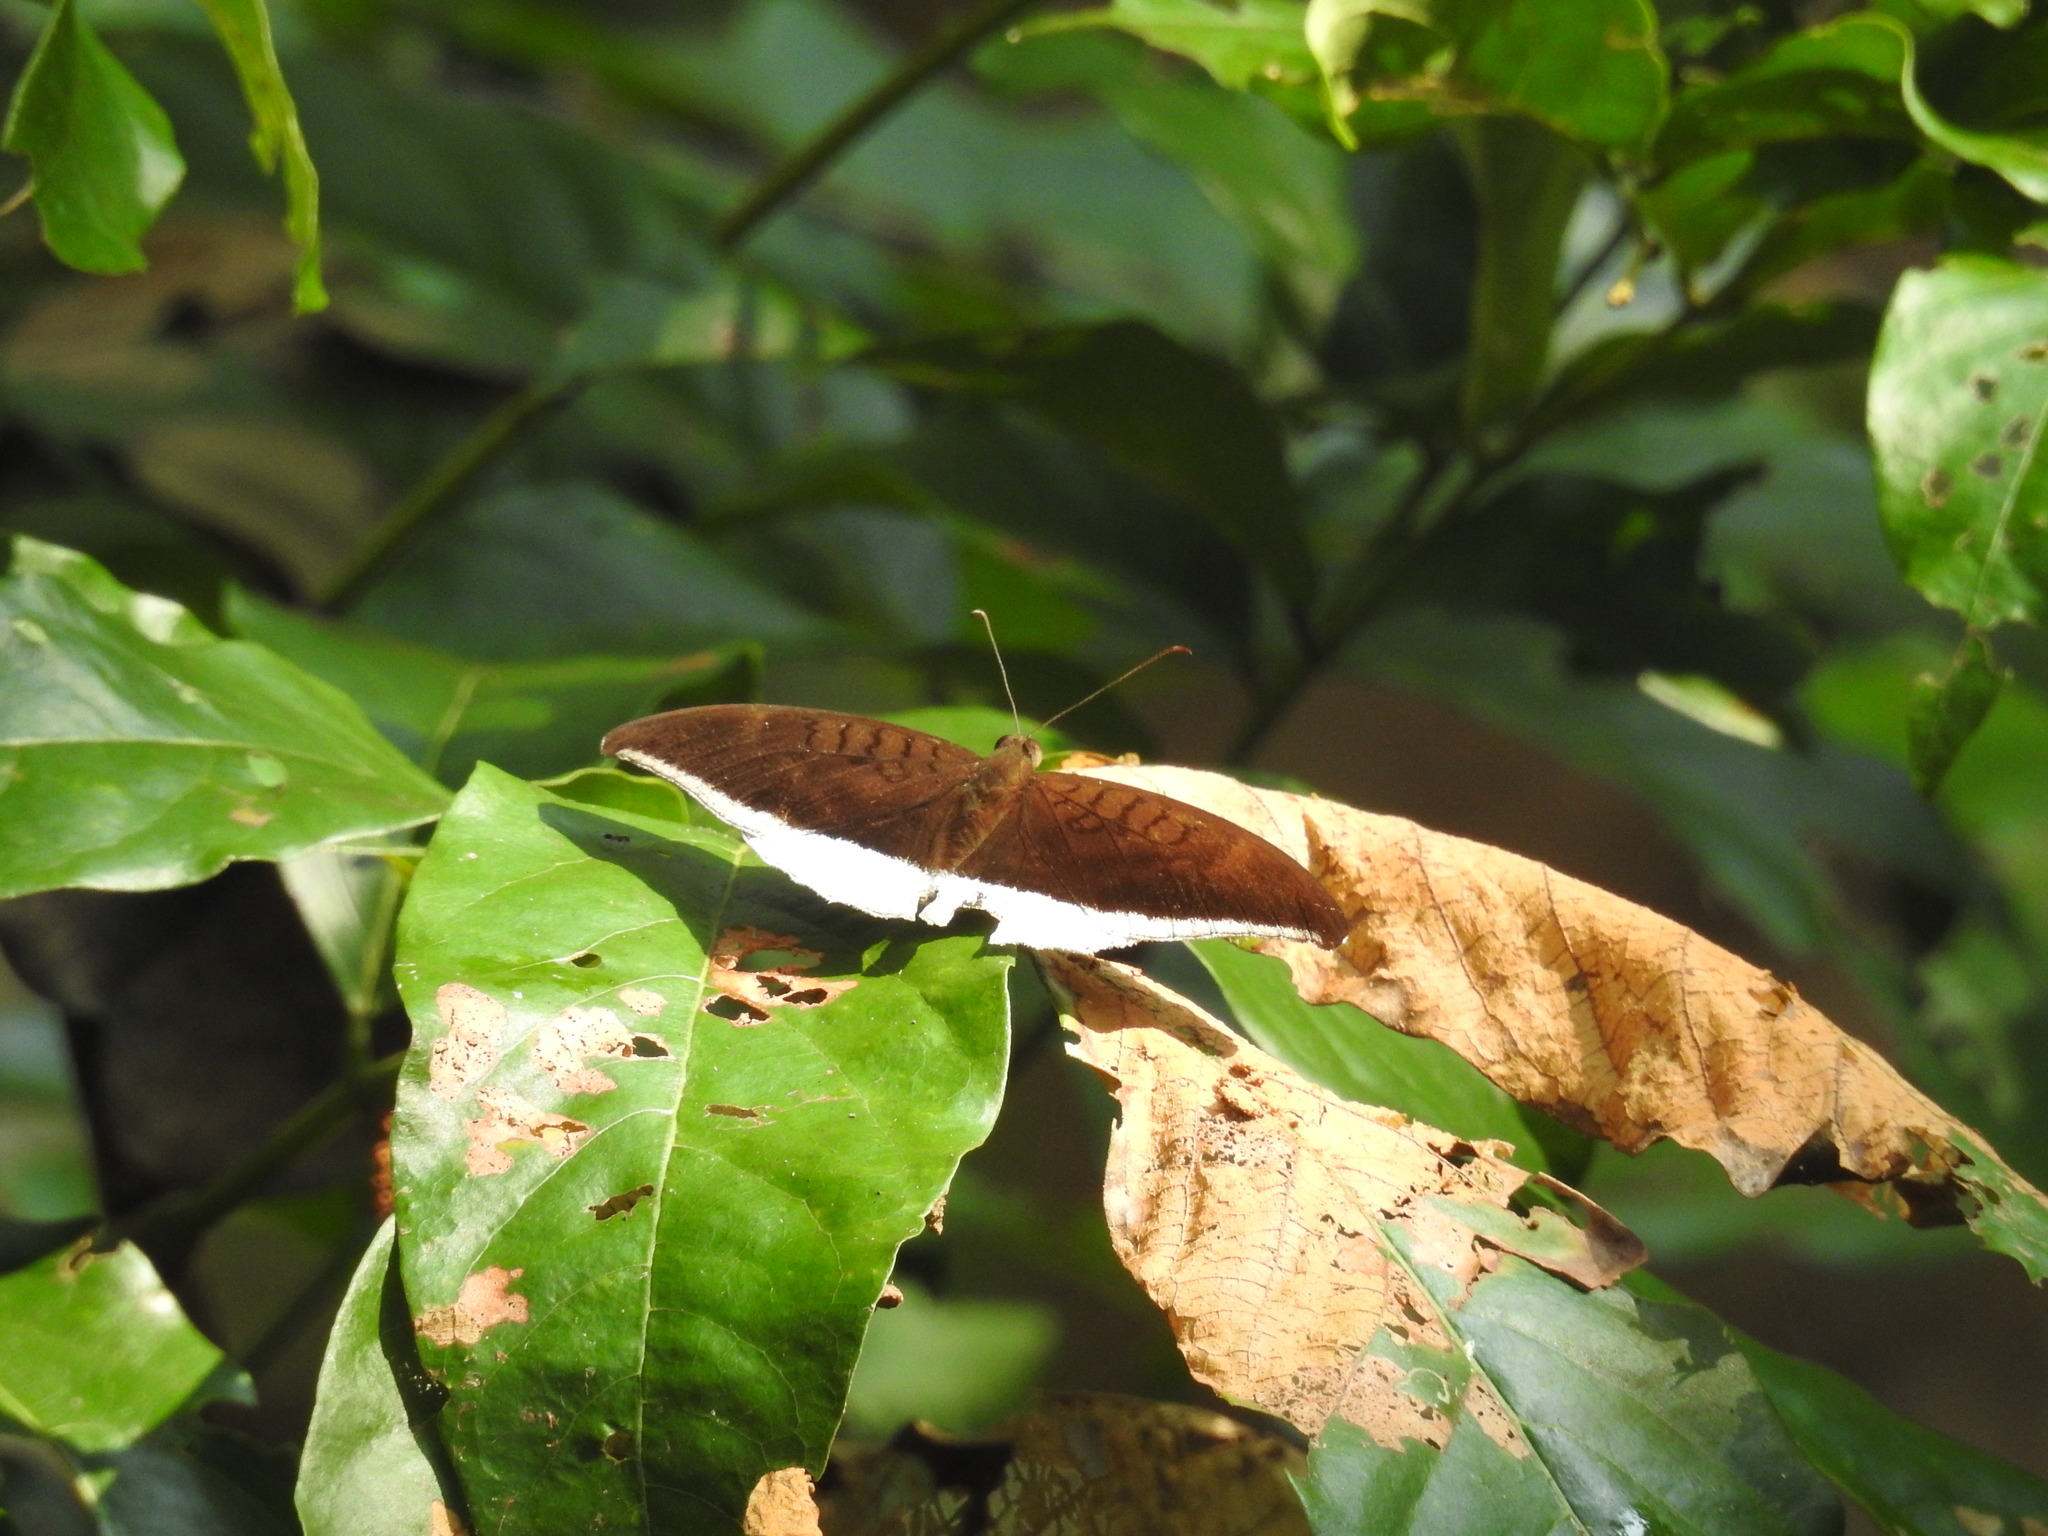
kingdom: Animalia
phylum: Arthropoda
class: Insecta
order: Lepidoptera
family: Nymphalidae
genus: Tanaecia
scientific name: Tanaecia lepidea
